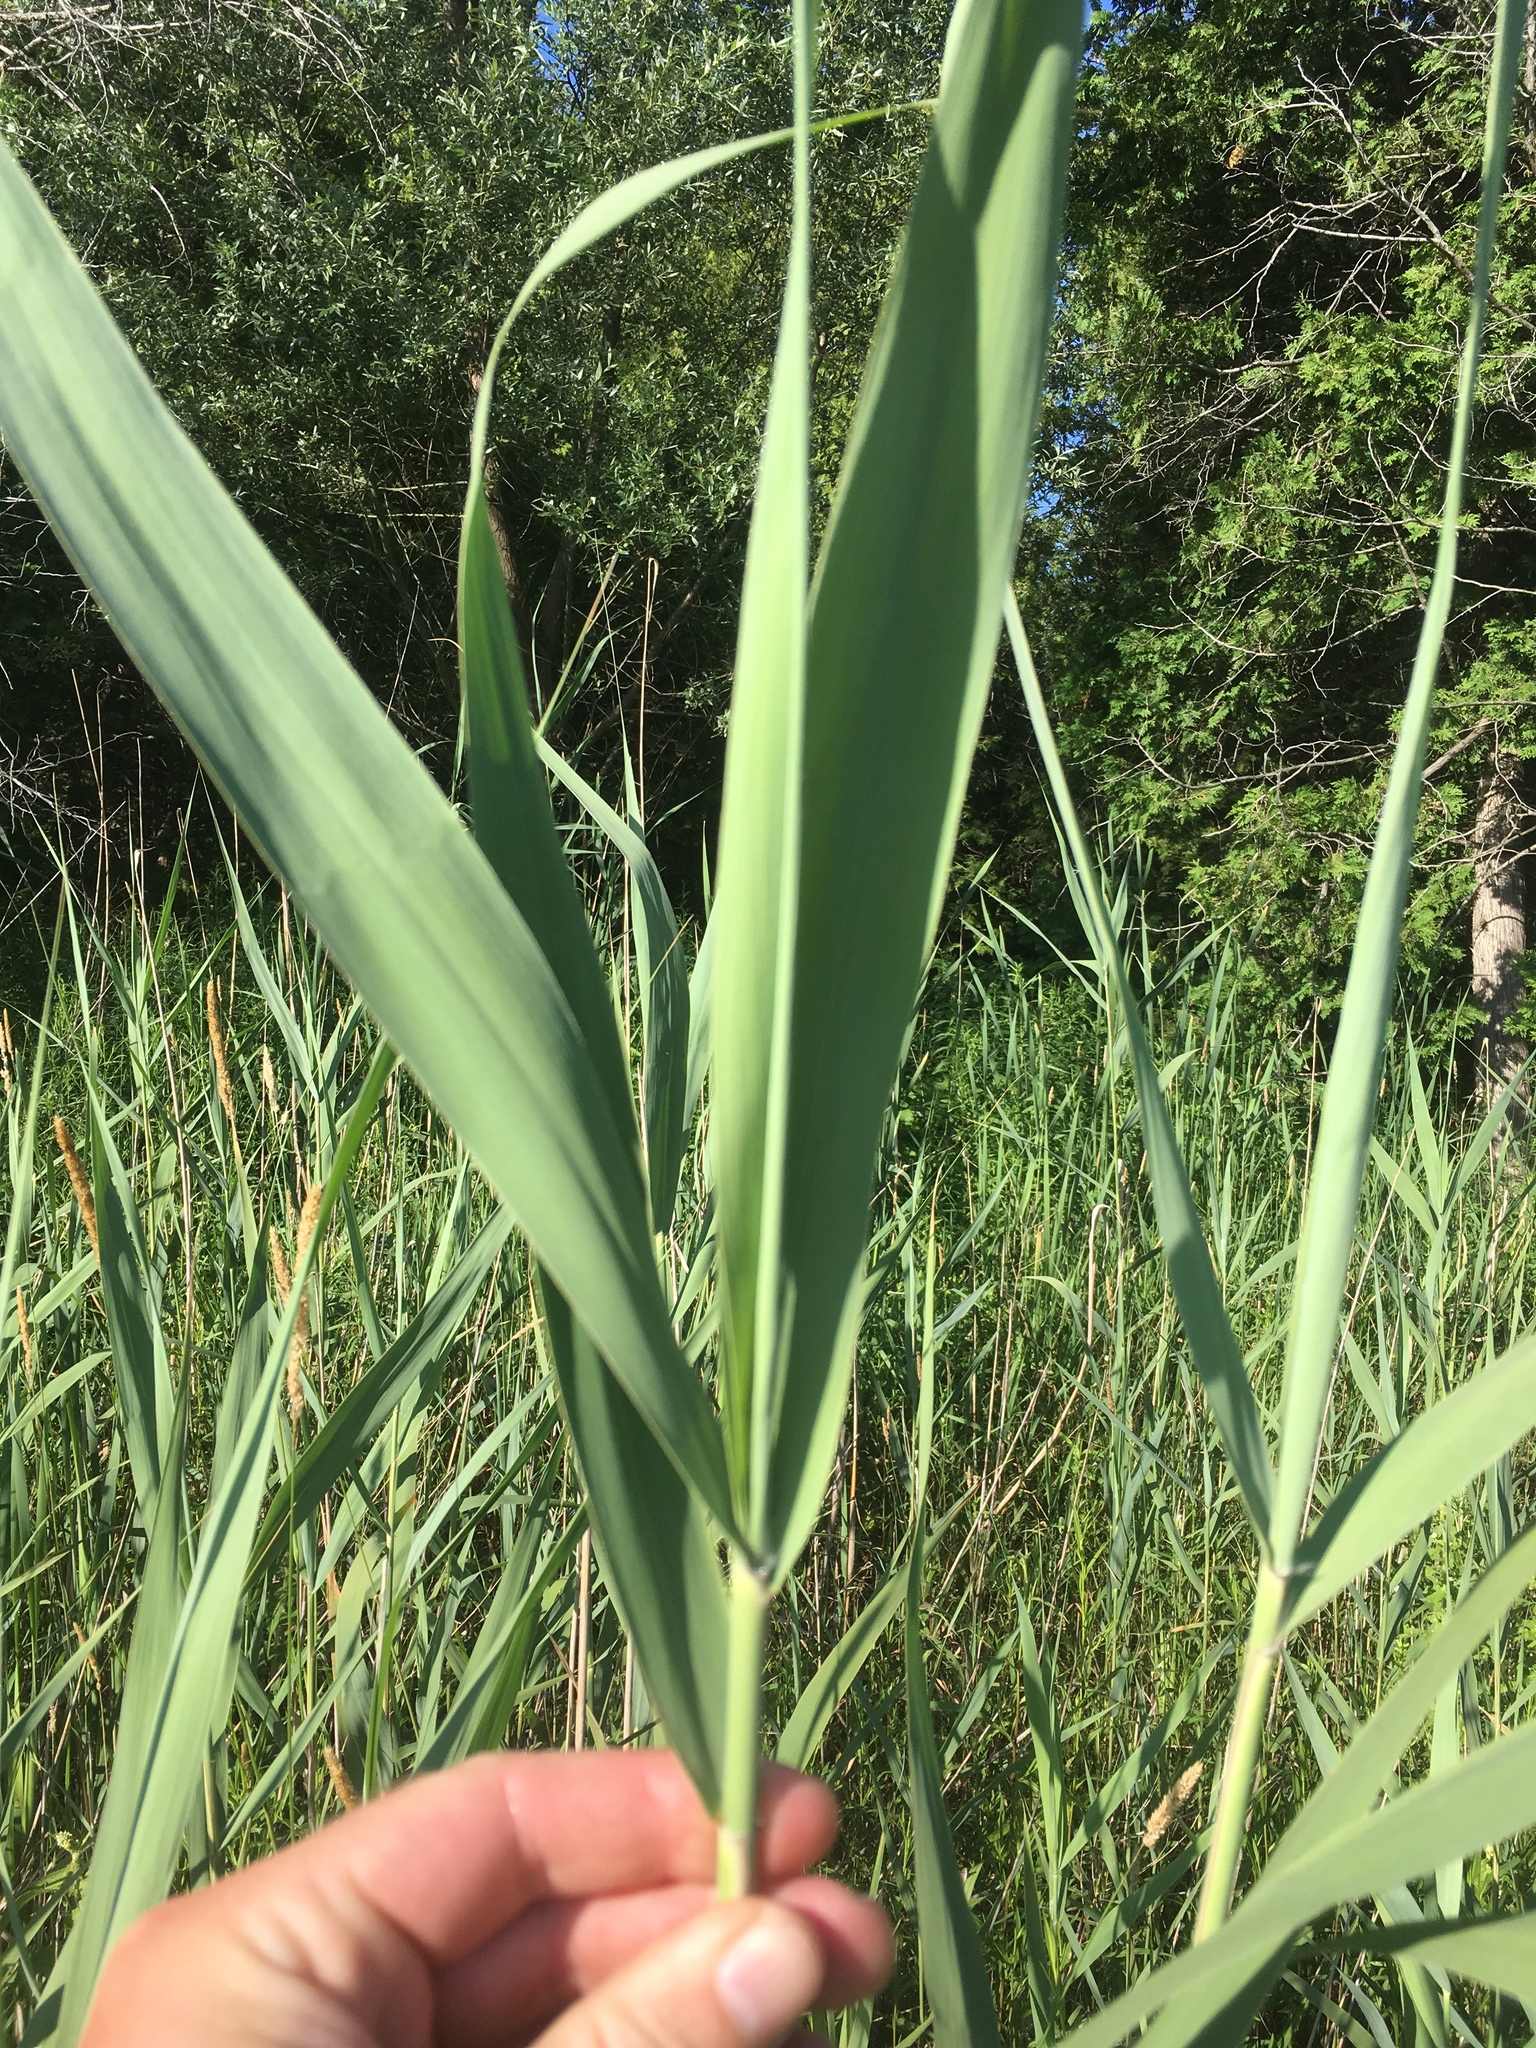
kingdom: Plantae
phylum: Tracheophyta
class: Liliopsida
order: Poales
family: Poaceae
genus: Phragmites
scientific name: Phragmites australis
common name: Common reed
